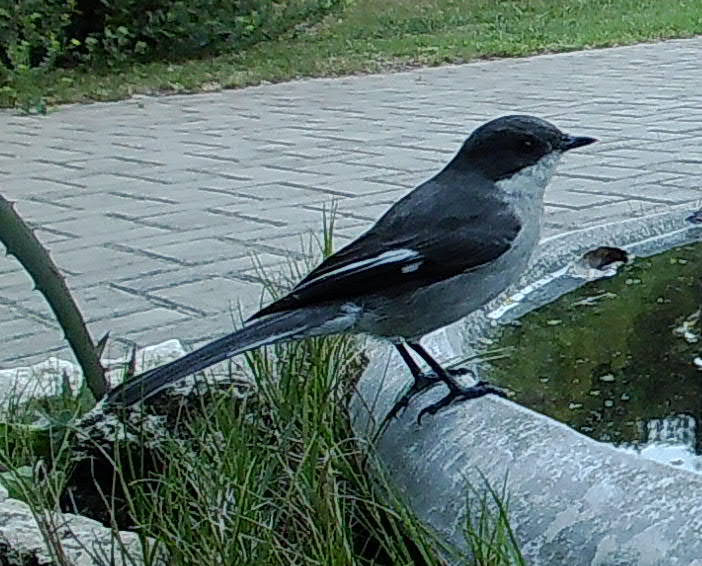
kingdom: Animalia
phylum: Chordata
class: Aves
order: Passeriformes
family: Muscicapidae
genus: Sigelus
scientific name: Sigelus silens
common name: Fiscal flycatcher
